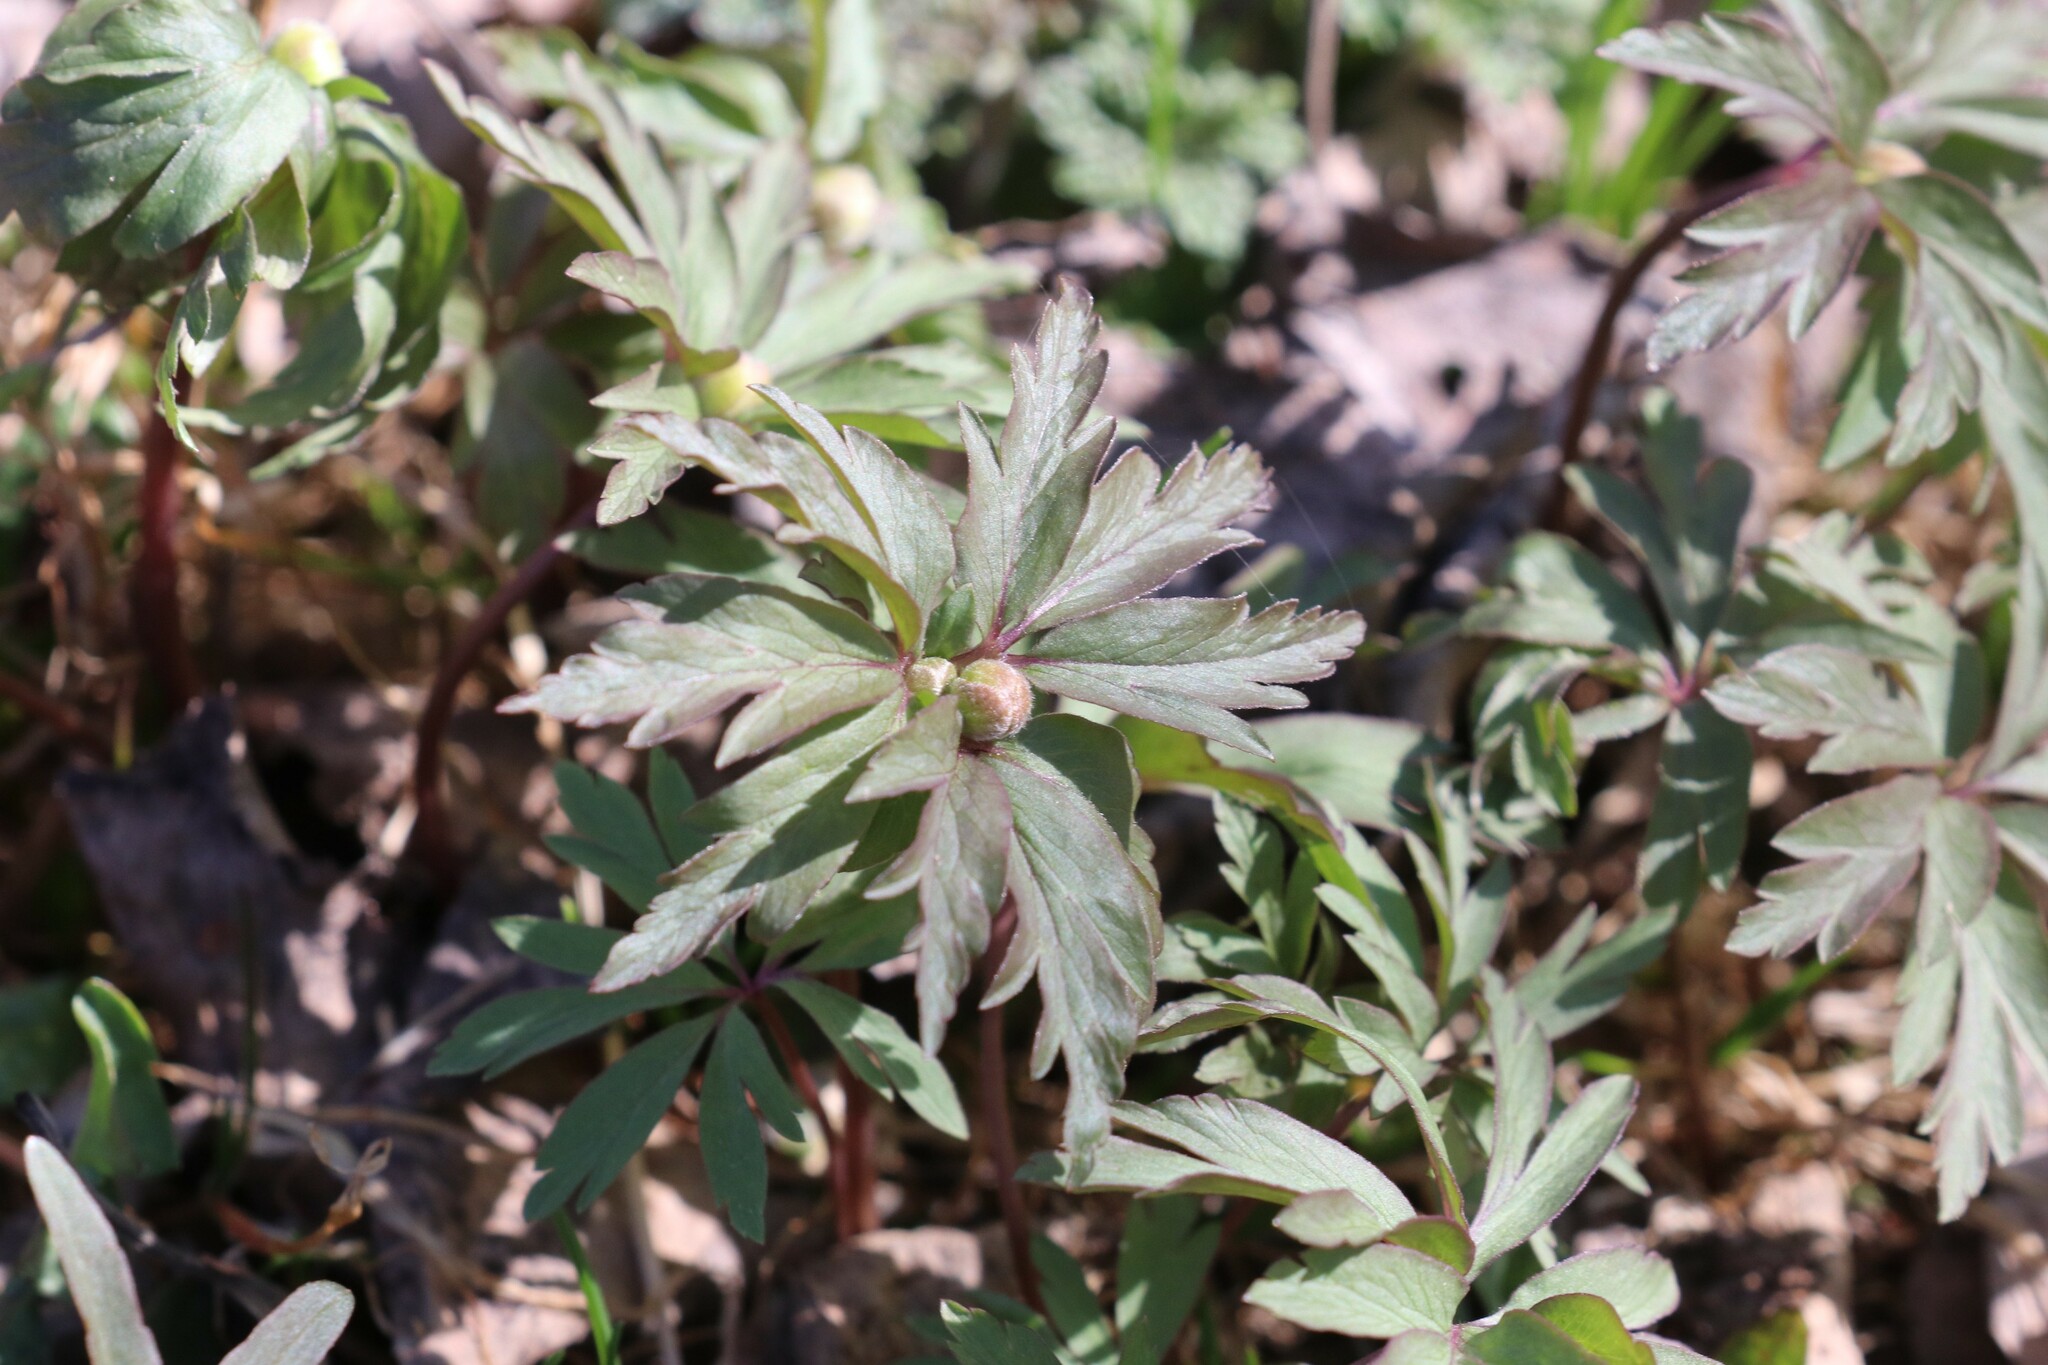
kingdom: Plantae
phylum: Tracheophyta
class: Magnoliopsida
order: Ranunculales
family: Ranunculaceae
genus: Anemone
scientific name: Anemone ranunculoides
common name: Yellow anemone
